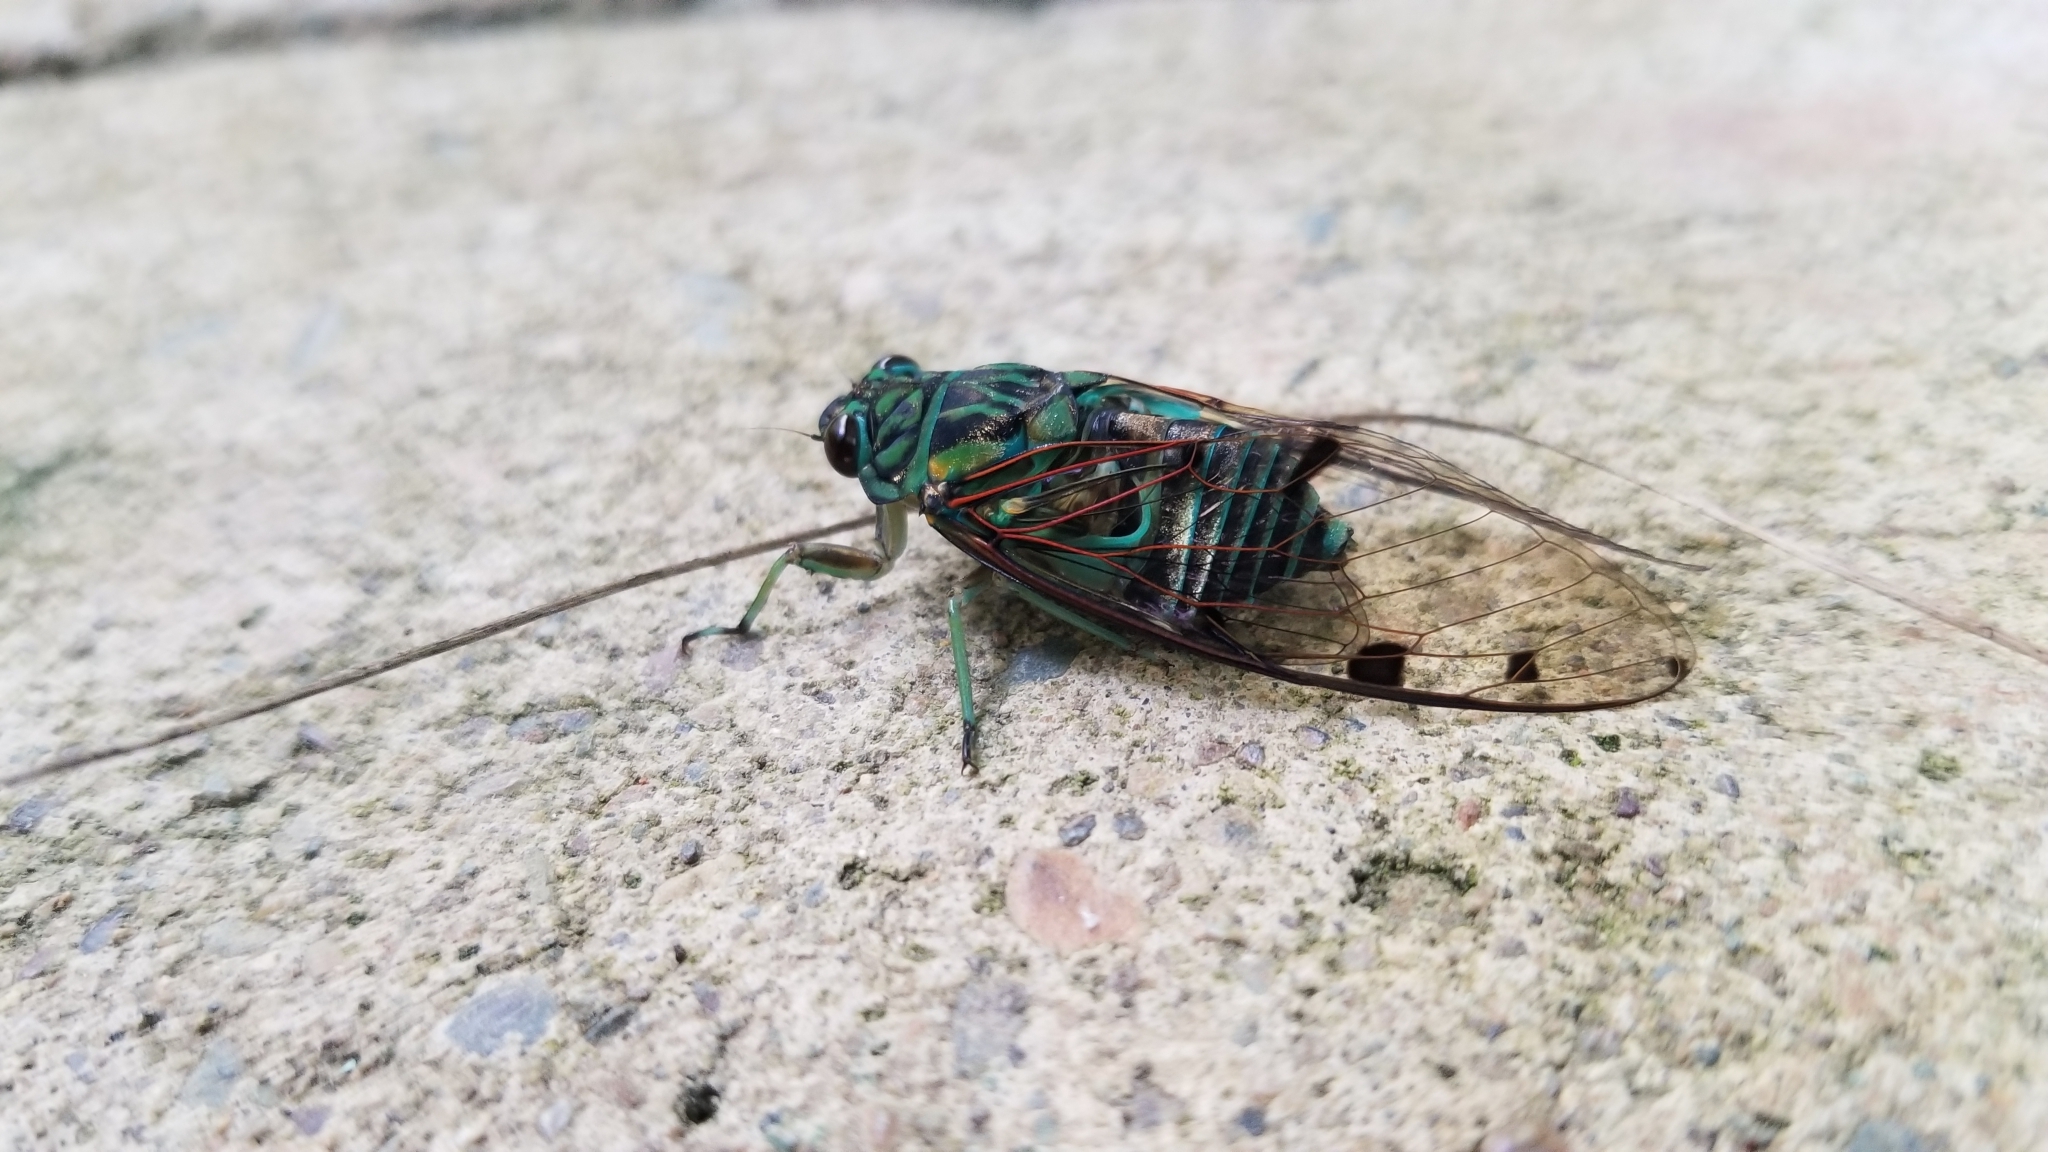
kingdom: Animalia
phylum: Arthropoda
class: Insecta
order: Hemiptera
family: Cicadidae
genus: Zammara
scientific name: Zammara smaragdula
